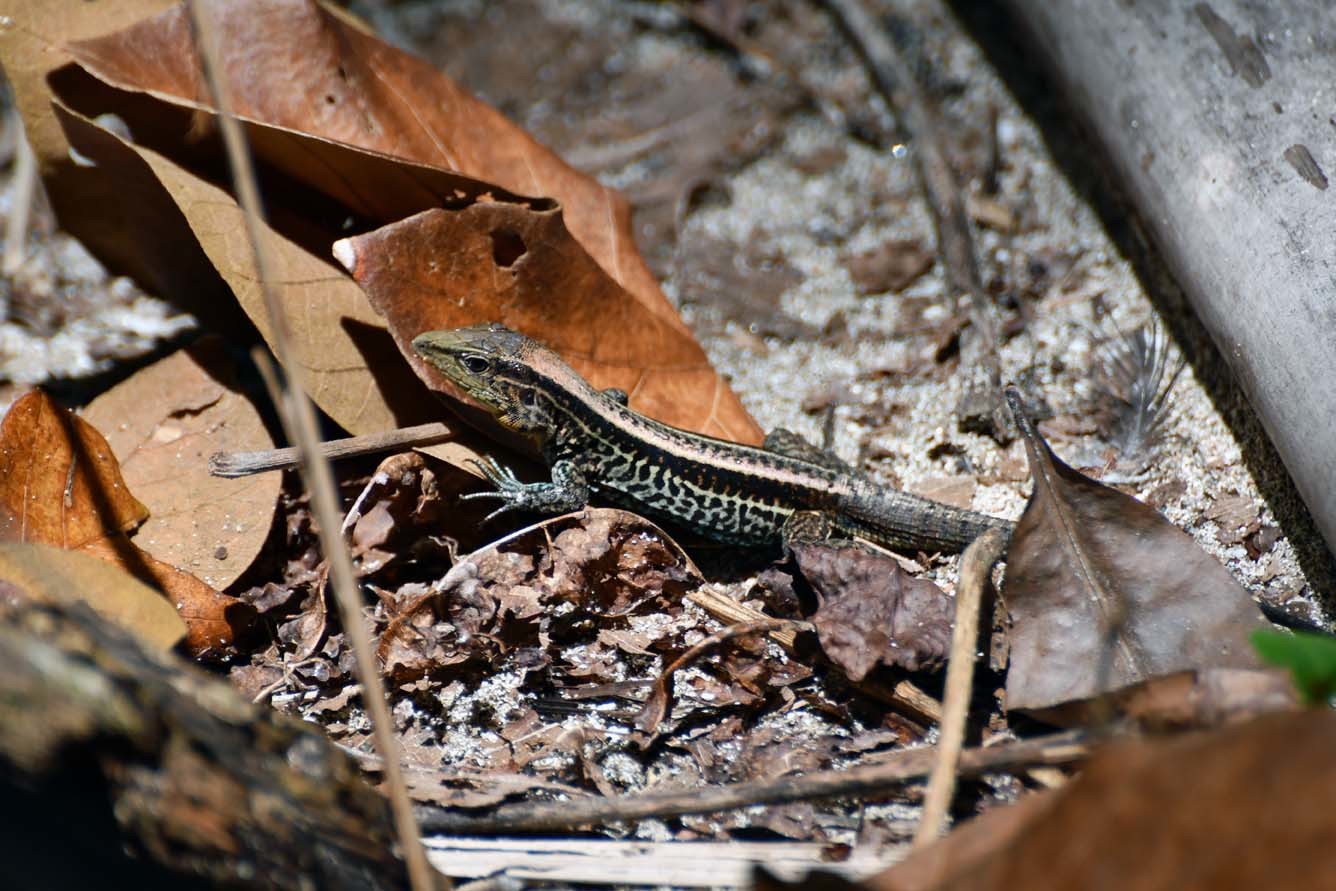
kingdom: Animalia
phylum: Chordata
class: Squamata
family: Teiidae
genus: Holcosus
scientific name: Holcosus quadrilineatus
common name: Four-lined ameiva
